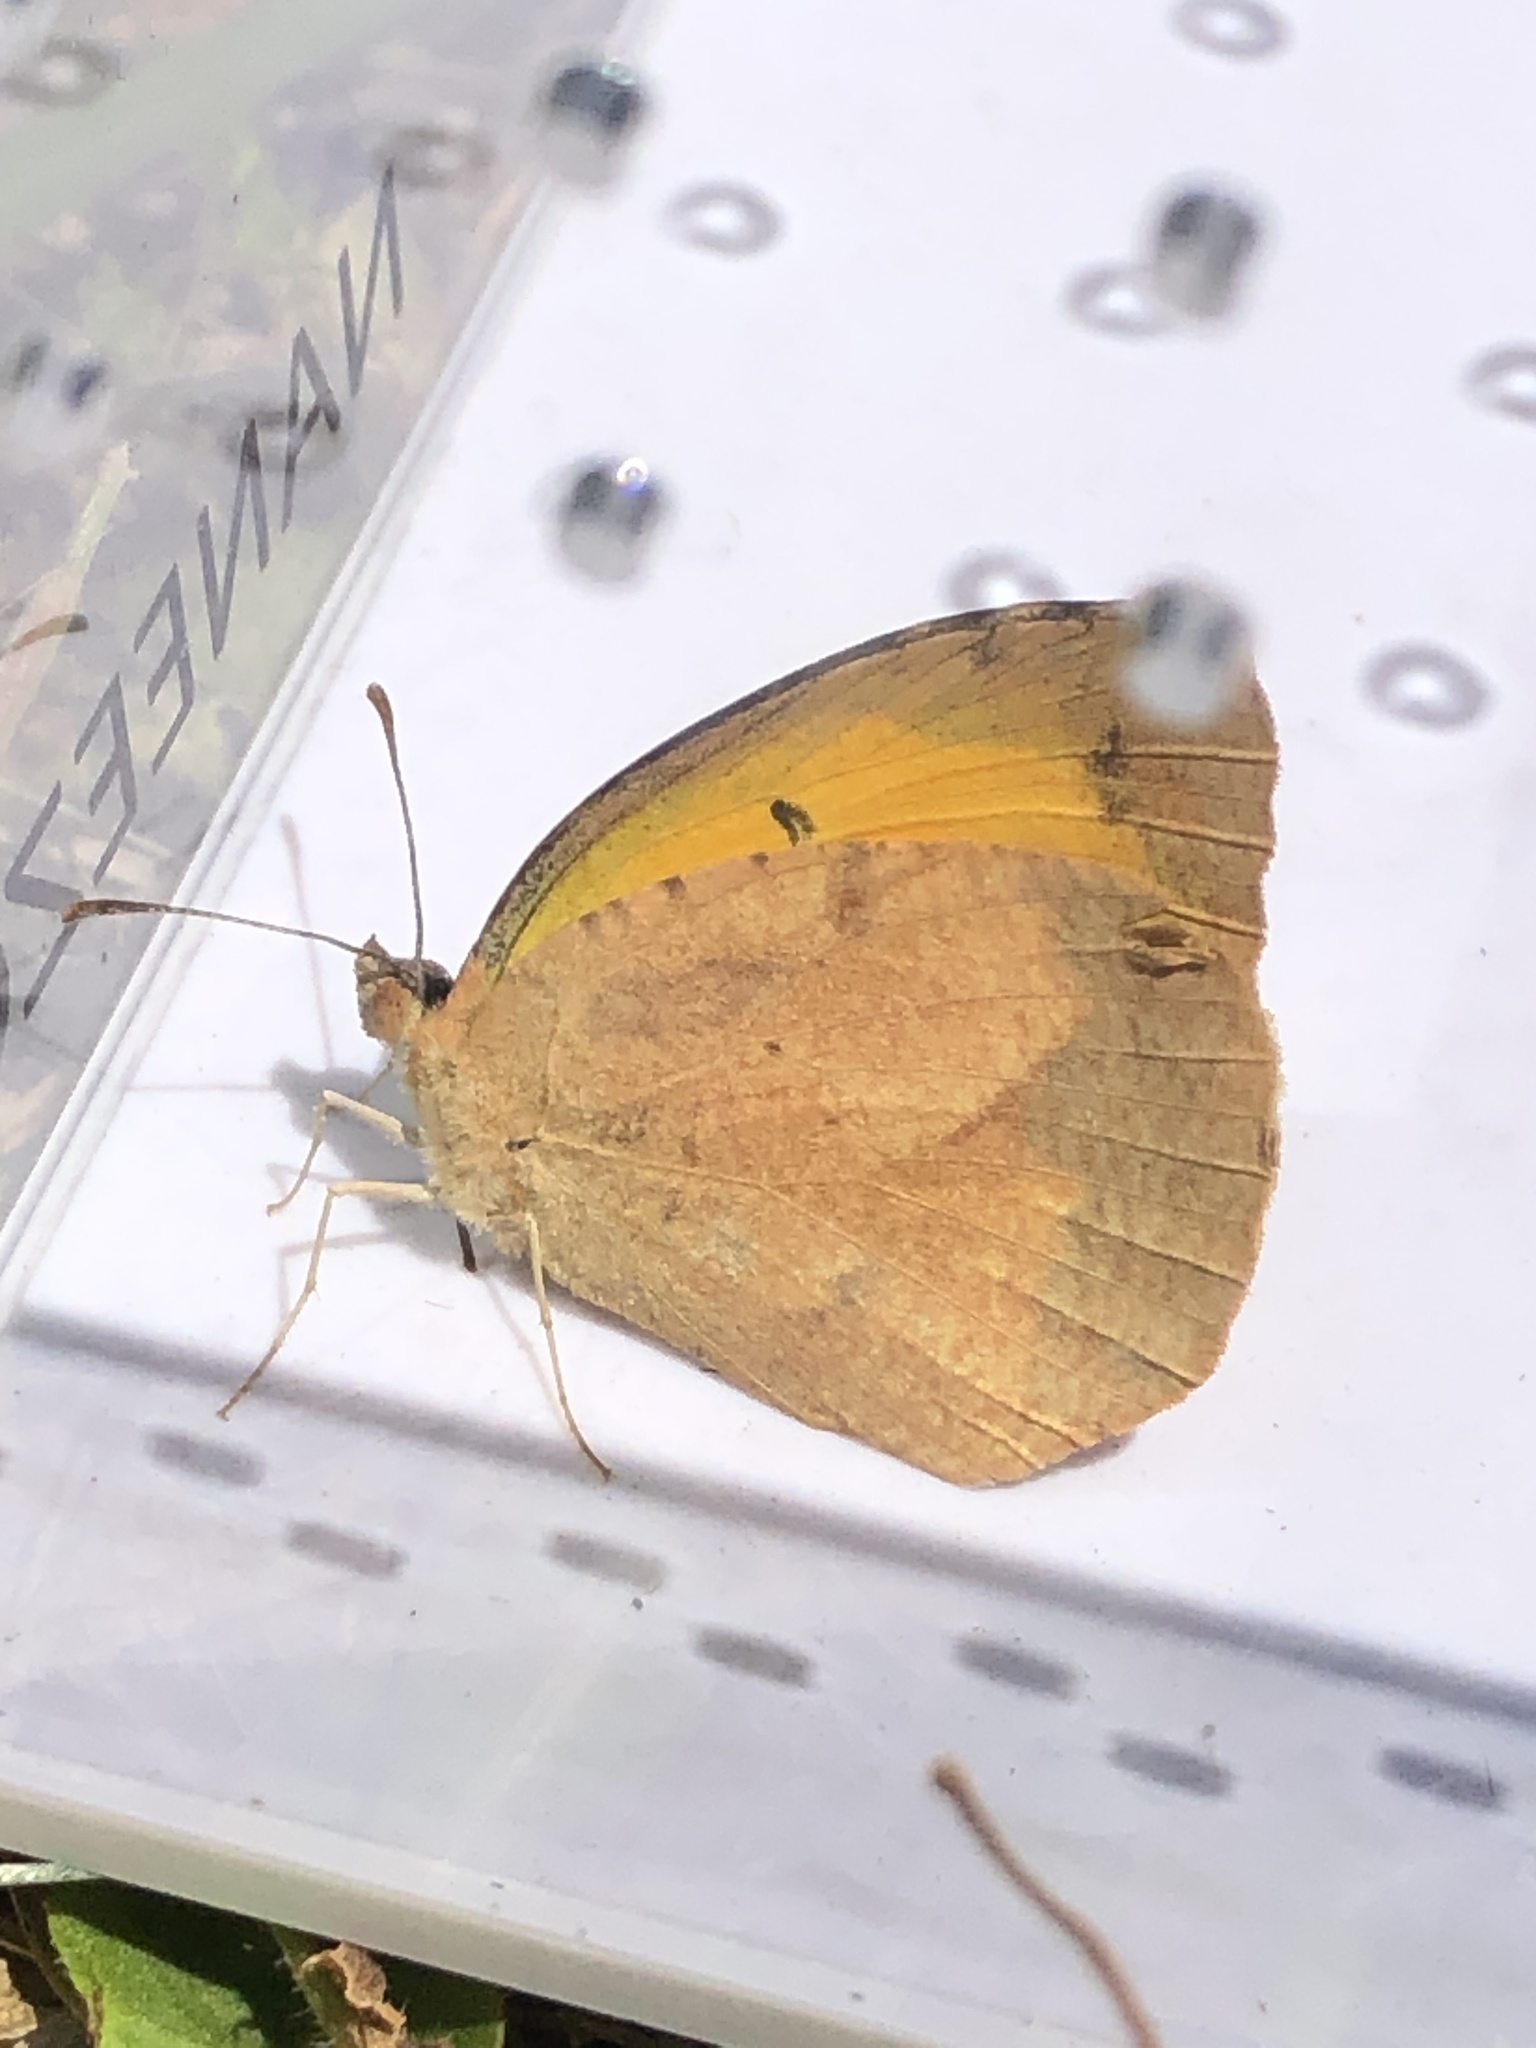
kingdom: Animalia
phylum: Arthropoda
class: Insecta
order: Lepidoptera
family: Pieridae
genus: Abaeis
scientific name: Abaeis nicippe
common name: Sleepy orange
